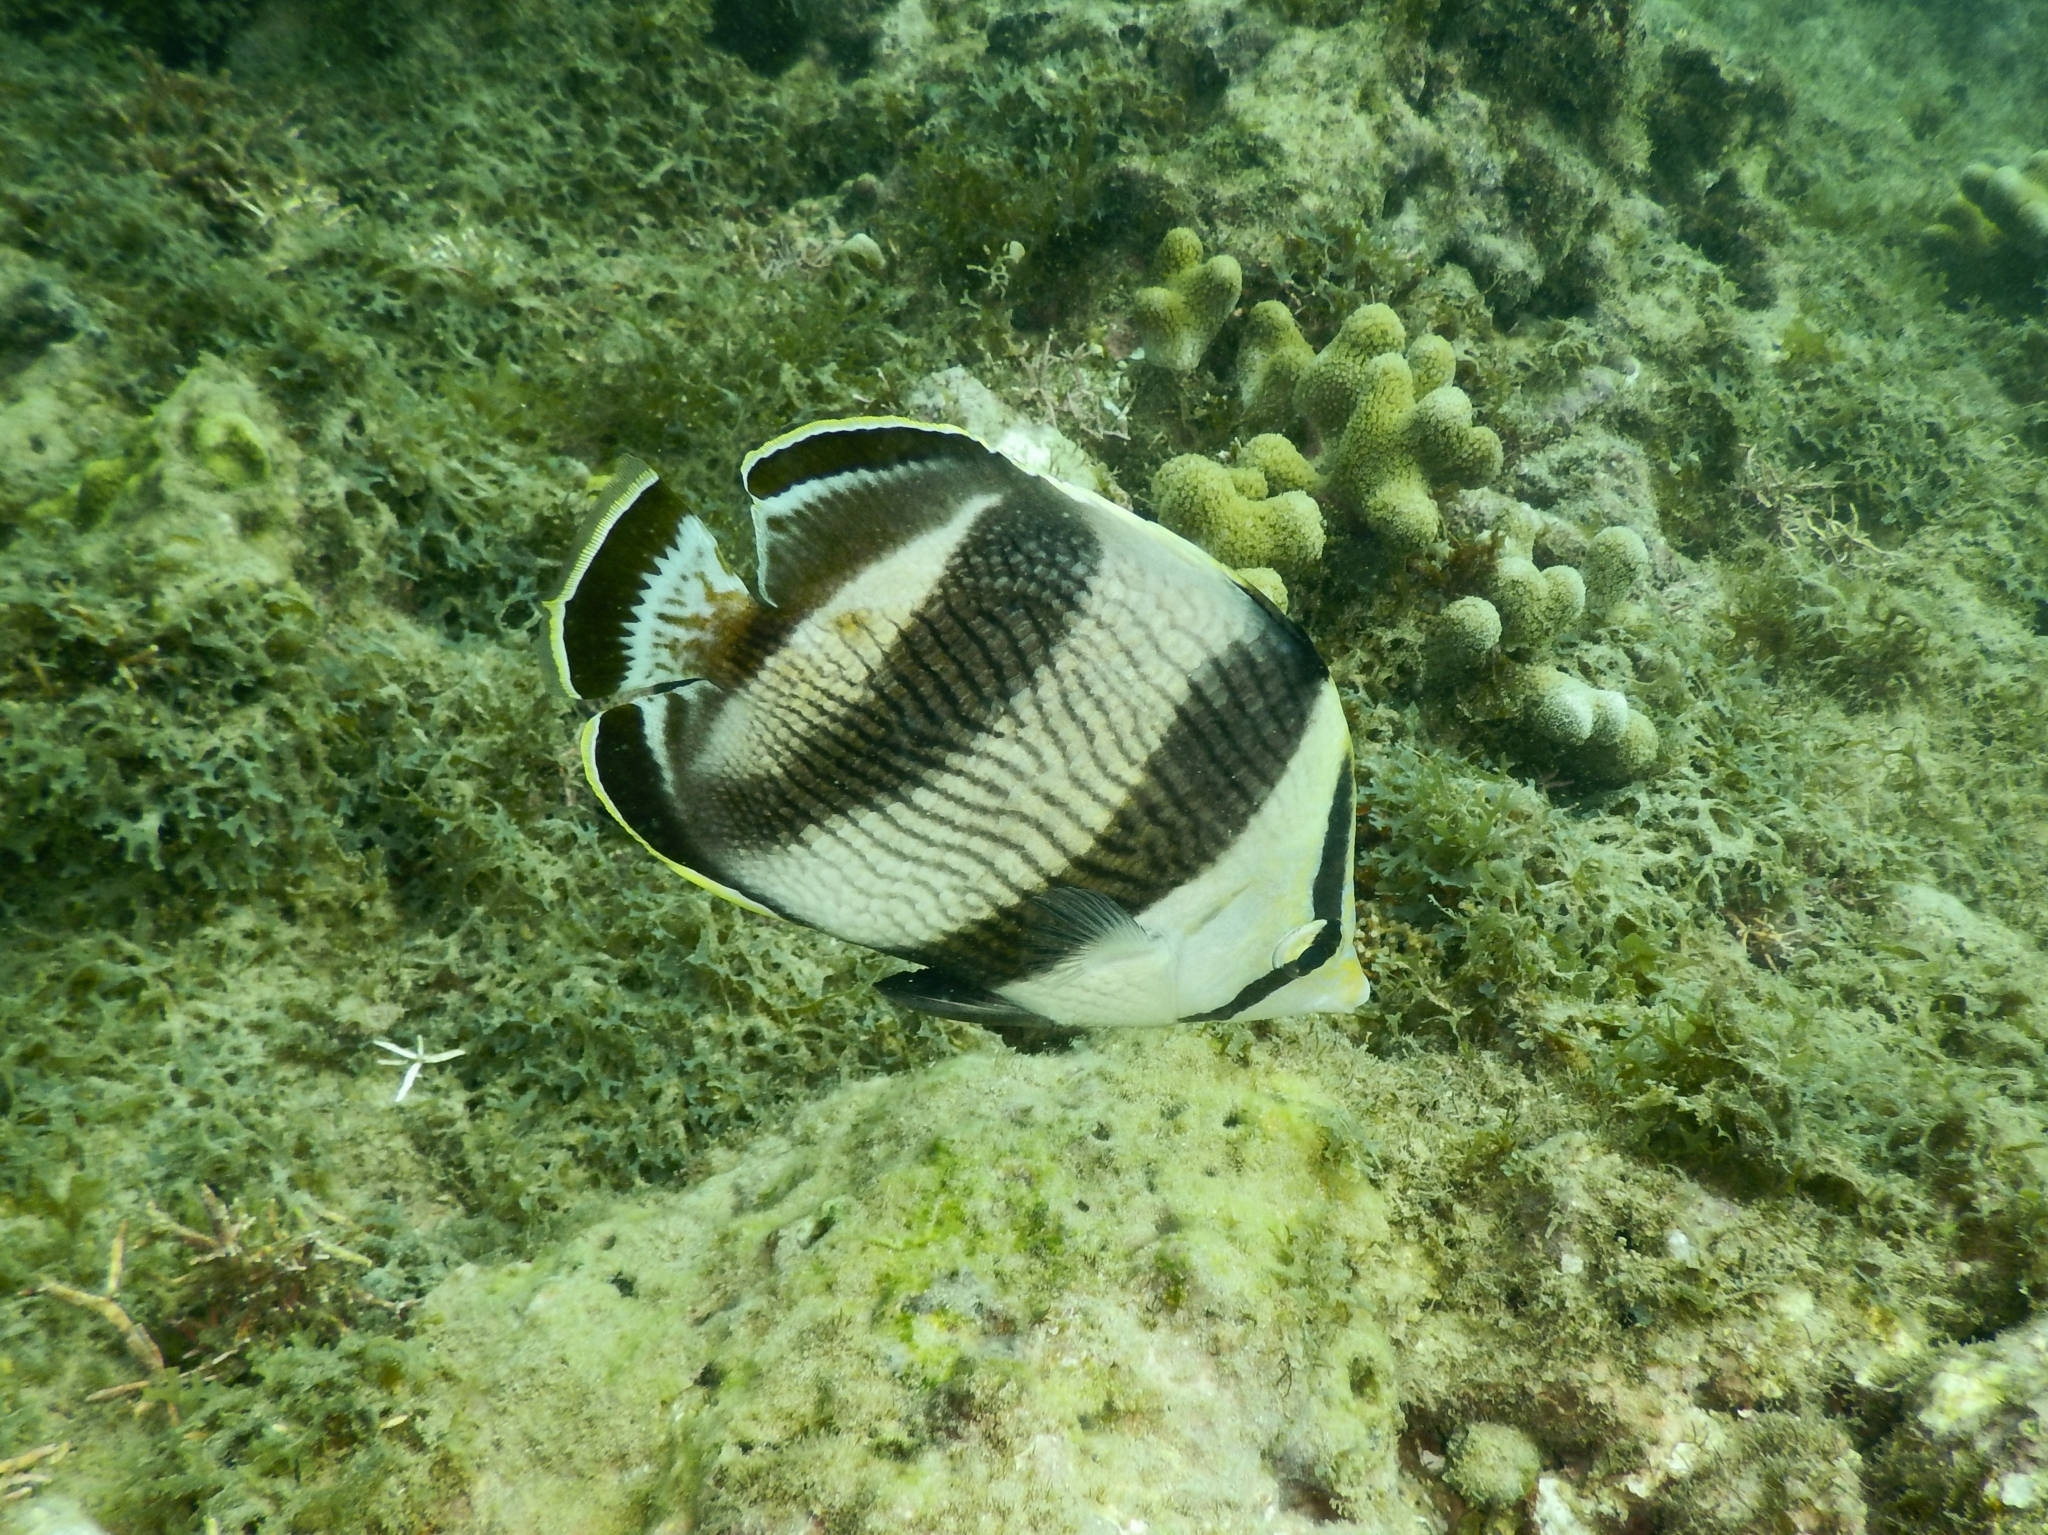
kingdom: Animalia
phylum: Chordata
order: Perciformes
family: Chaetodontidae
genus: Chaetodon
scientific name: Chaetodon striatus
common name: Banded butterflyfish
